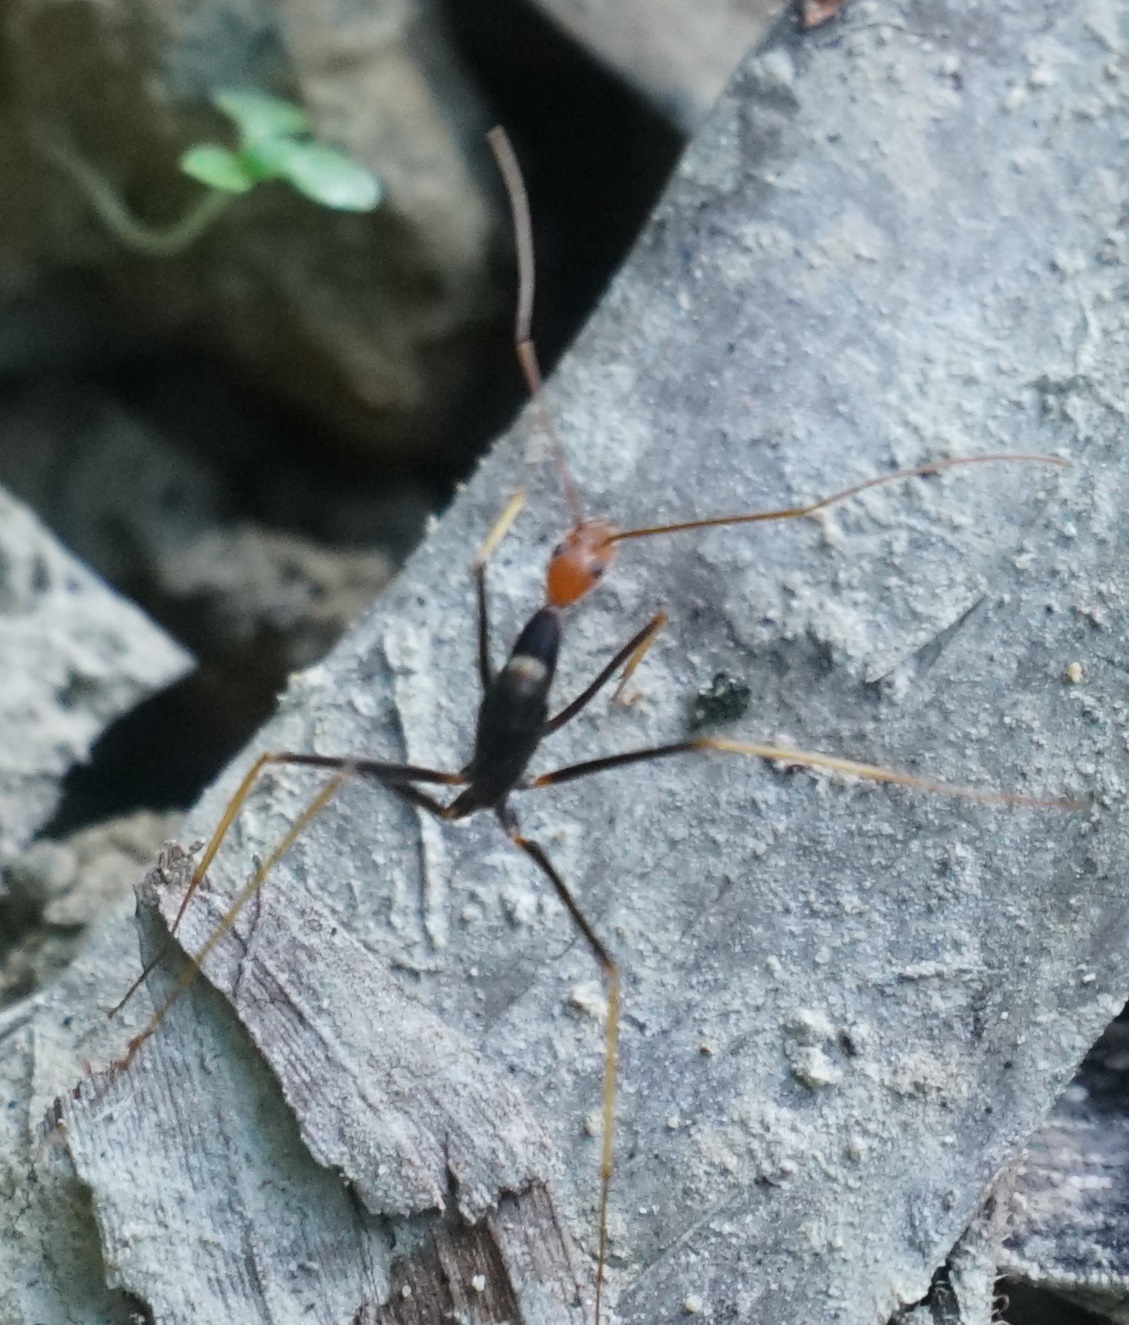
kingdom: Animalia
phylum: Arthropoda
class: Insecta
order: Hymenoptera
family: Formicidae
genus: Leptomyrmex
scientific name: Leptomyrmex ruficeps
